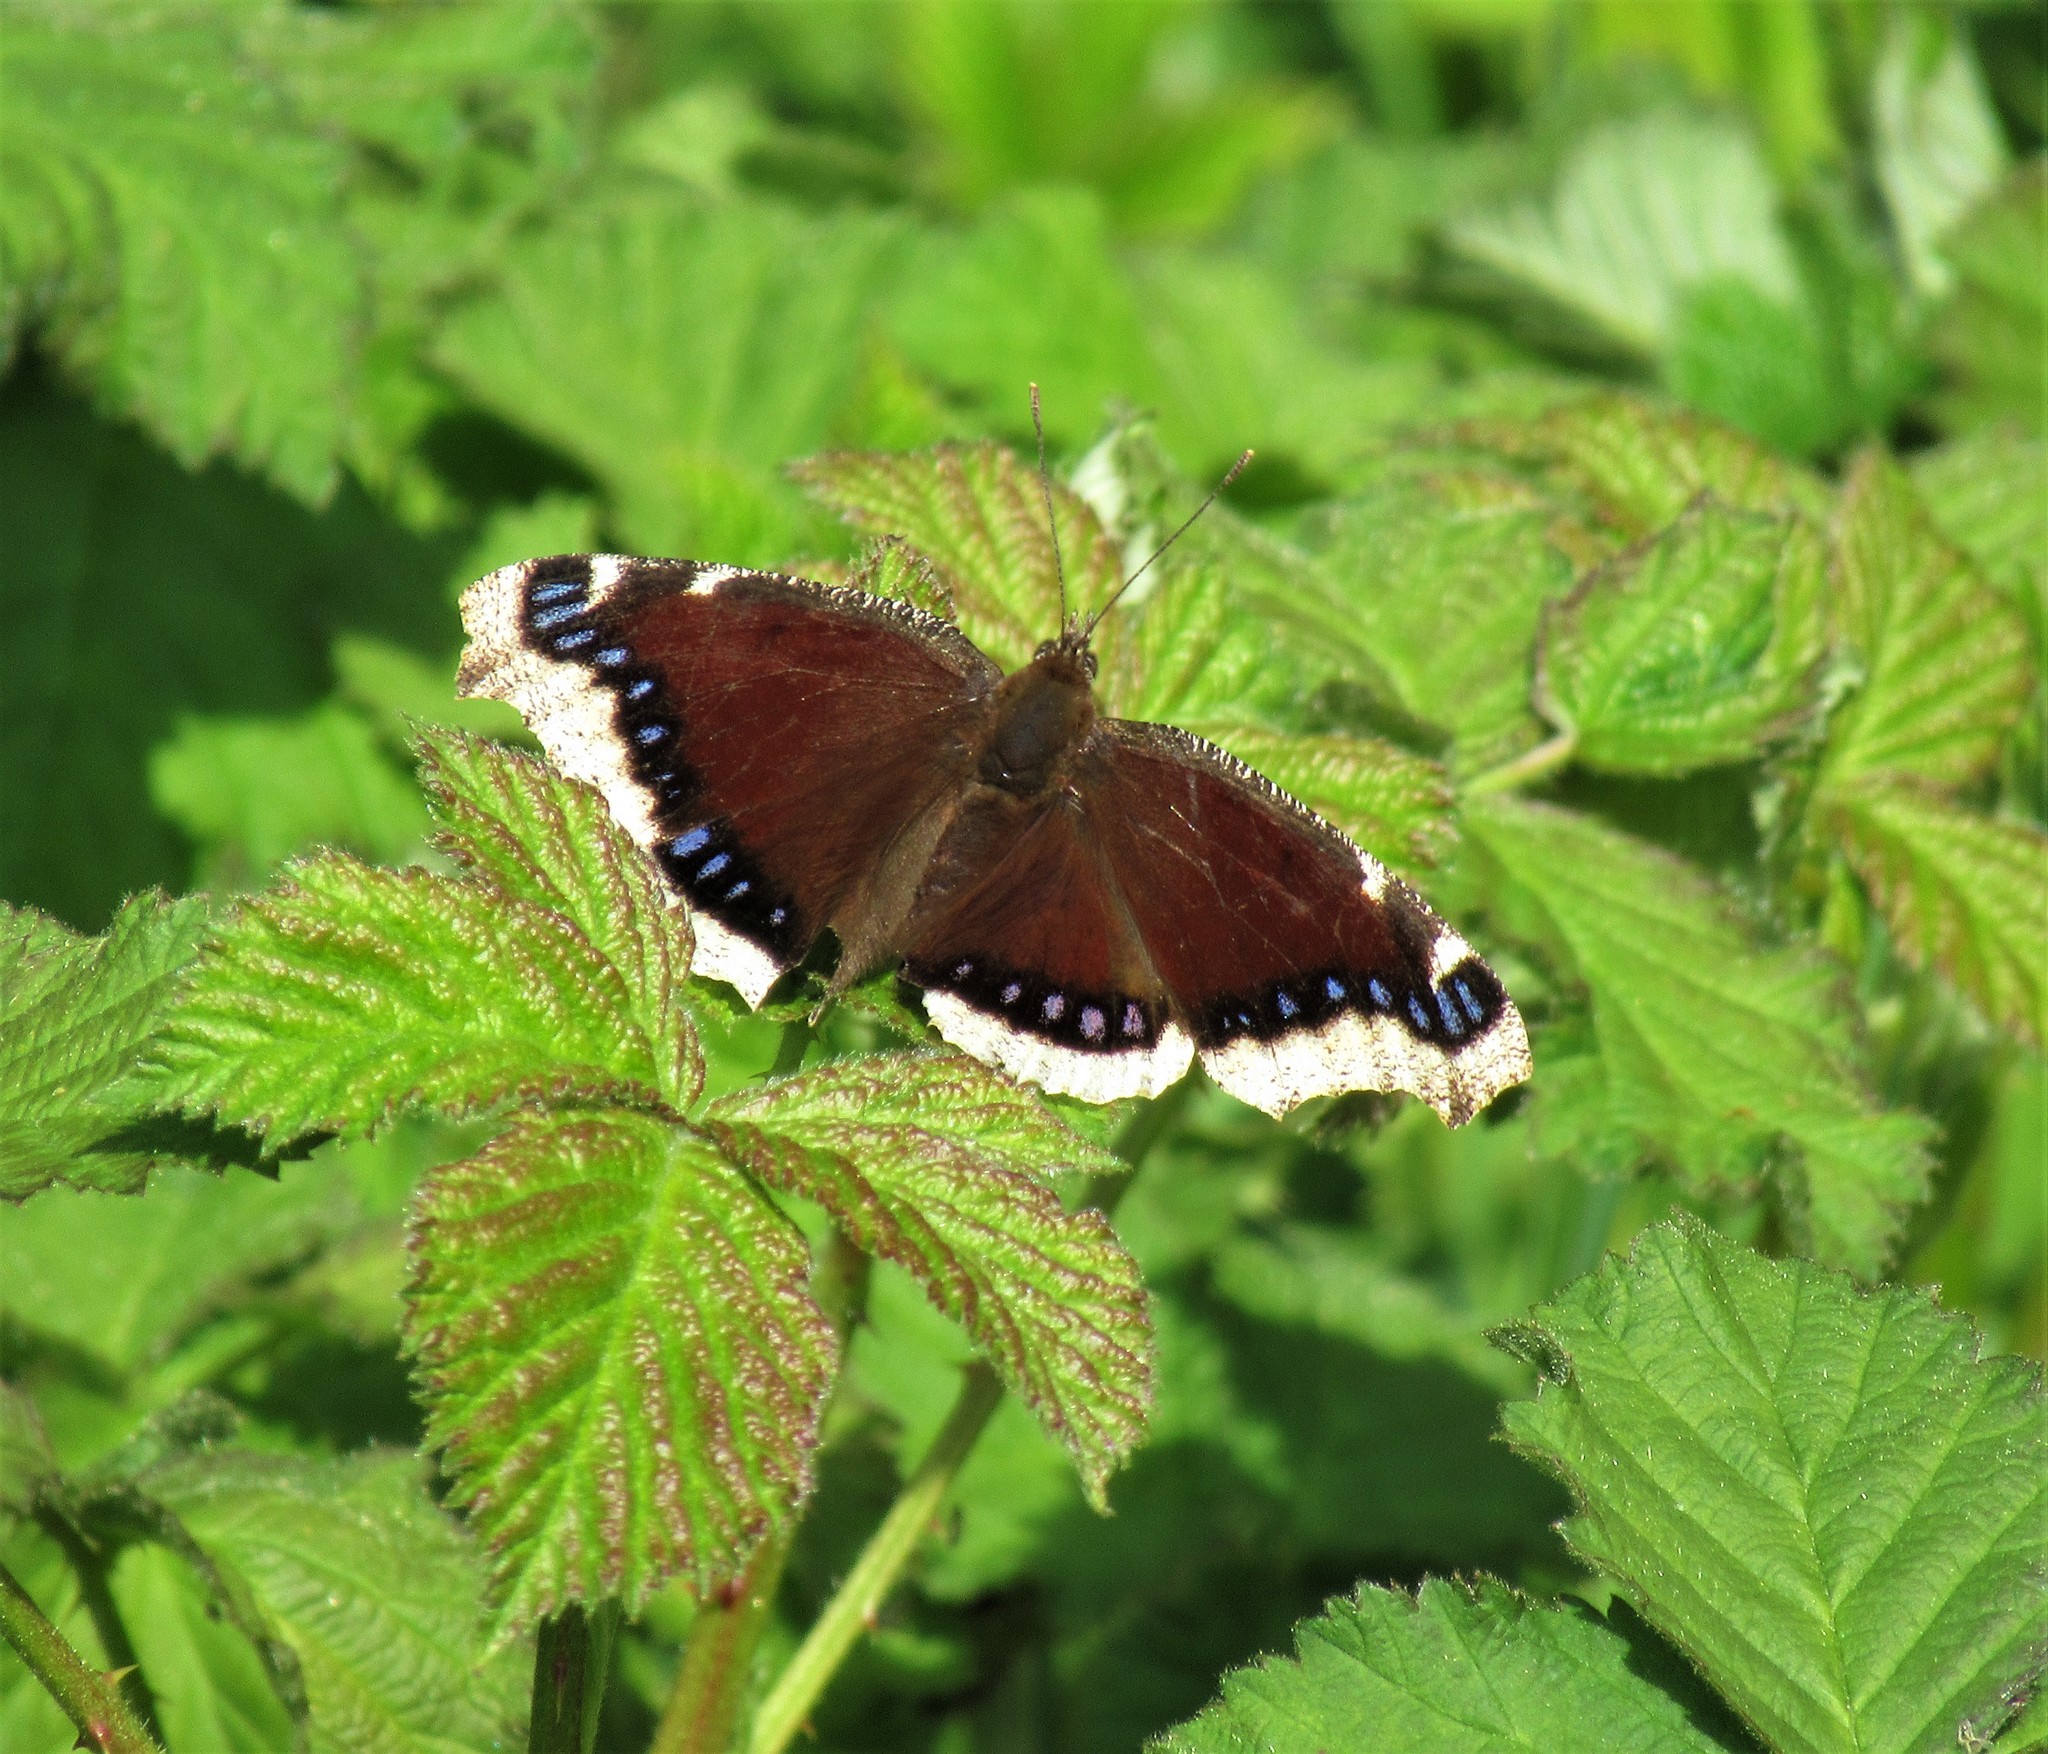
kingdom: Animalia
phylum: Arthropoda
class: Insecta
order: Lepidoptera
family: Nymphalidae
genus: Nymphalis
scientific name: Nymphalis antiopa
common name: Camberwell beauty
